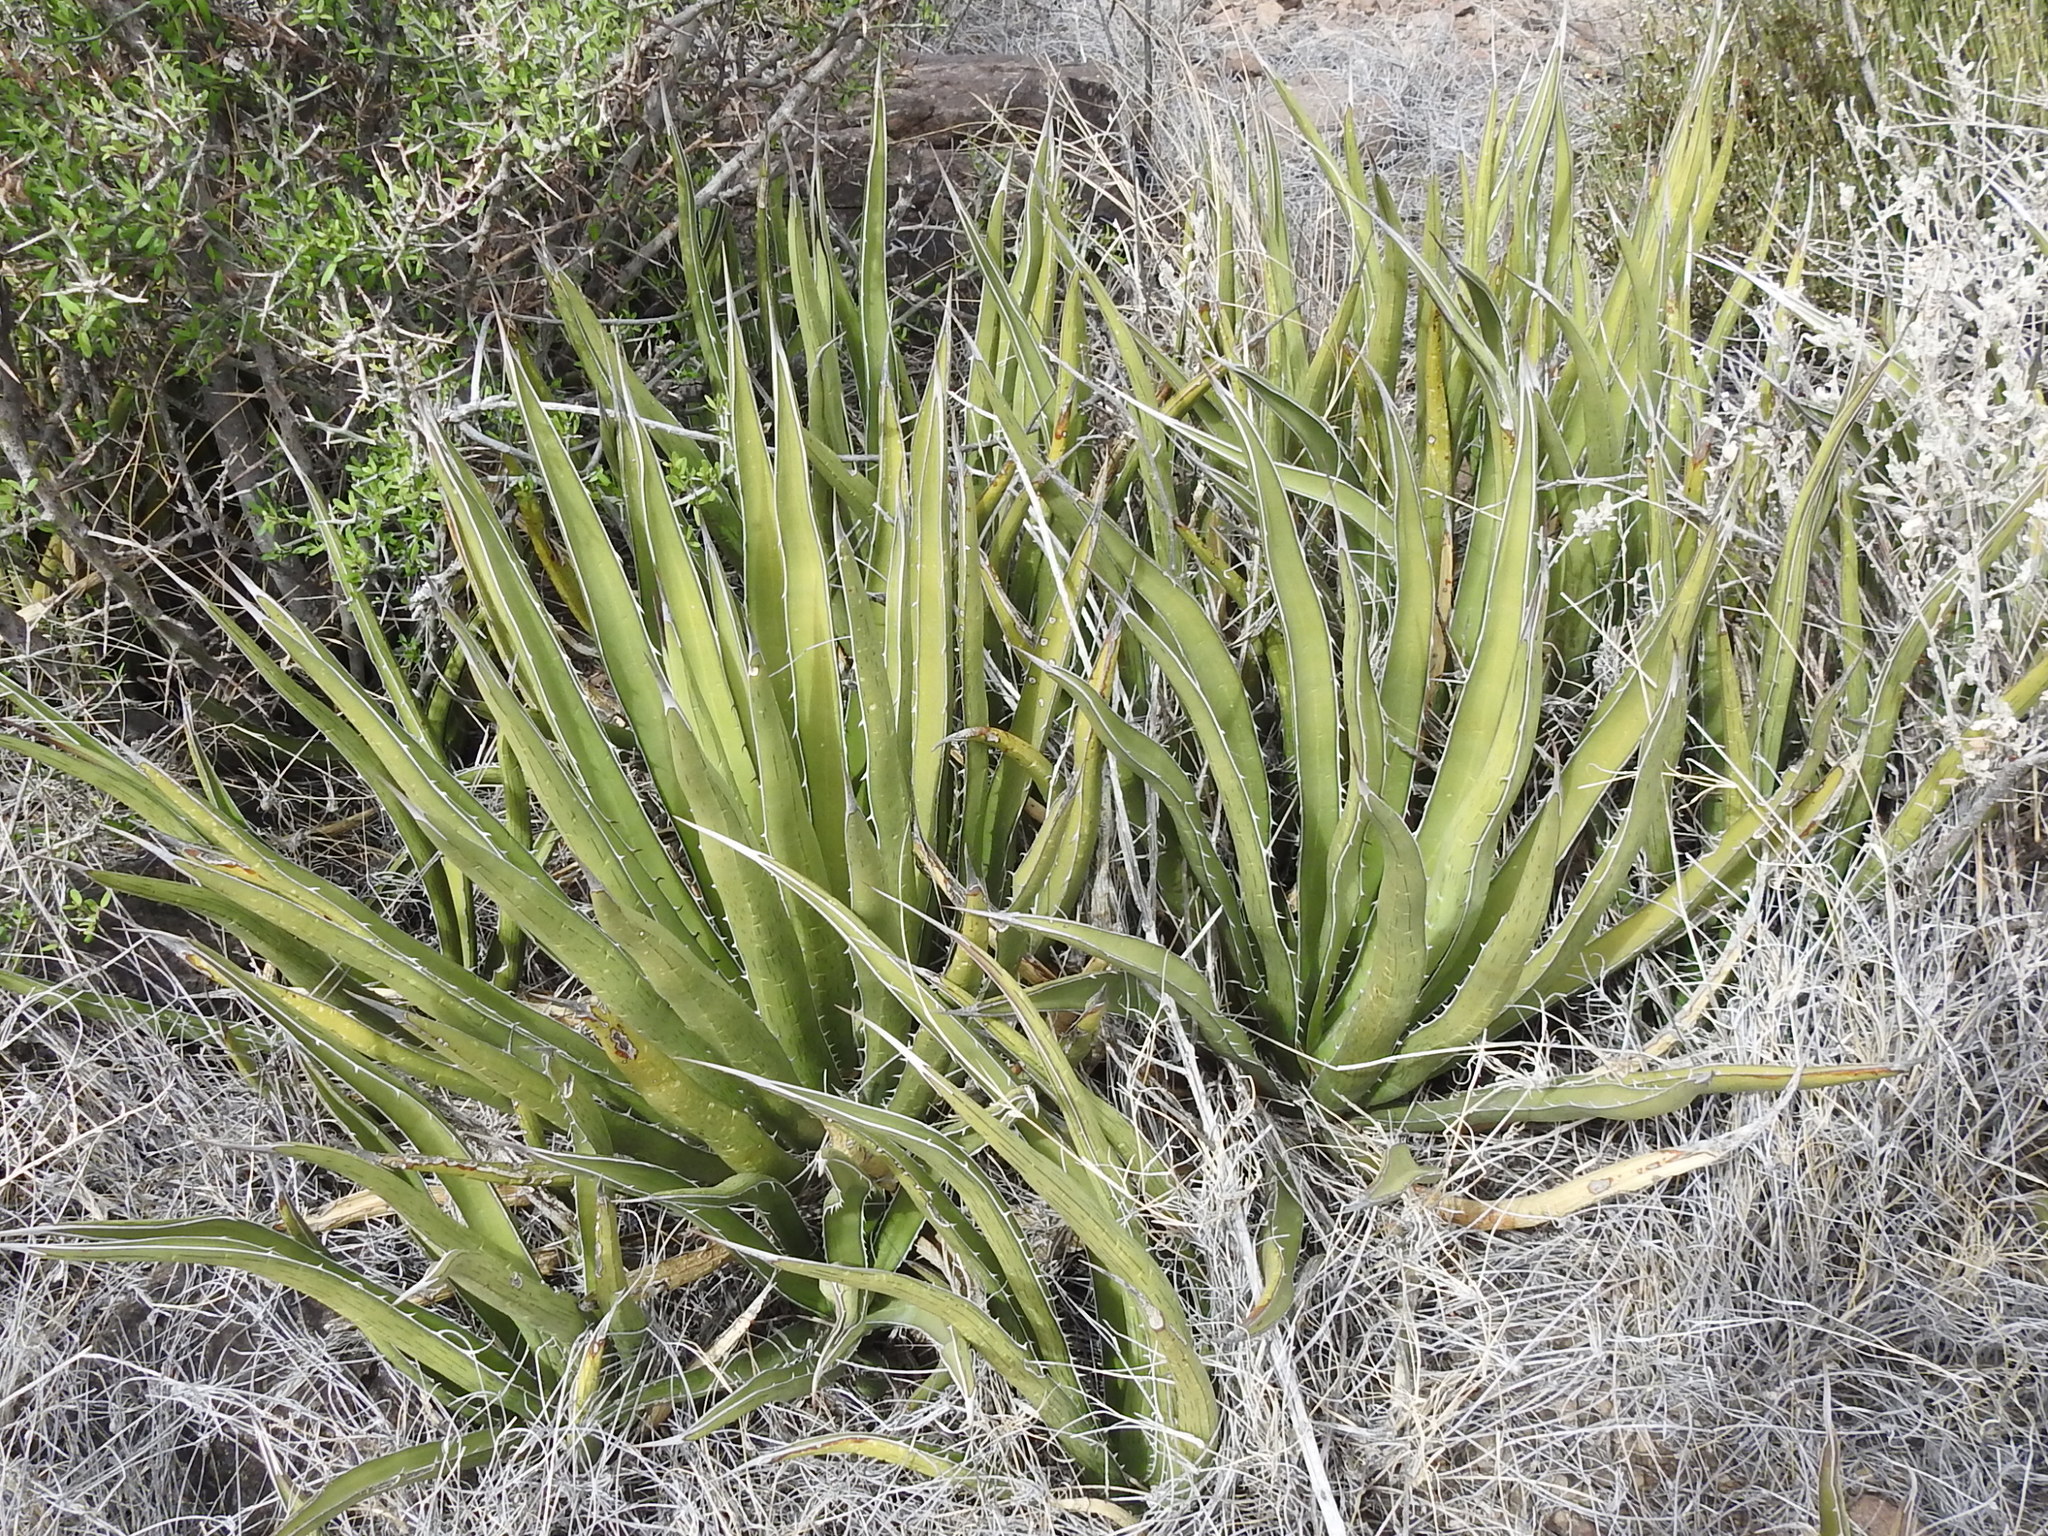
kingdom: Plantae
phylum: Tracheophyta
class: Liliopsida
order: Asparagales
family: Asparagaceae
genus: Agave
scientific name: Agave lechuguilla
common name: Lecheguilla agave
